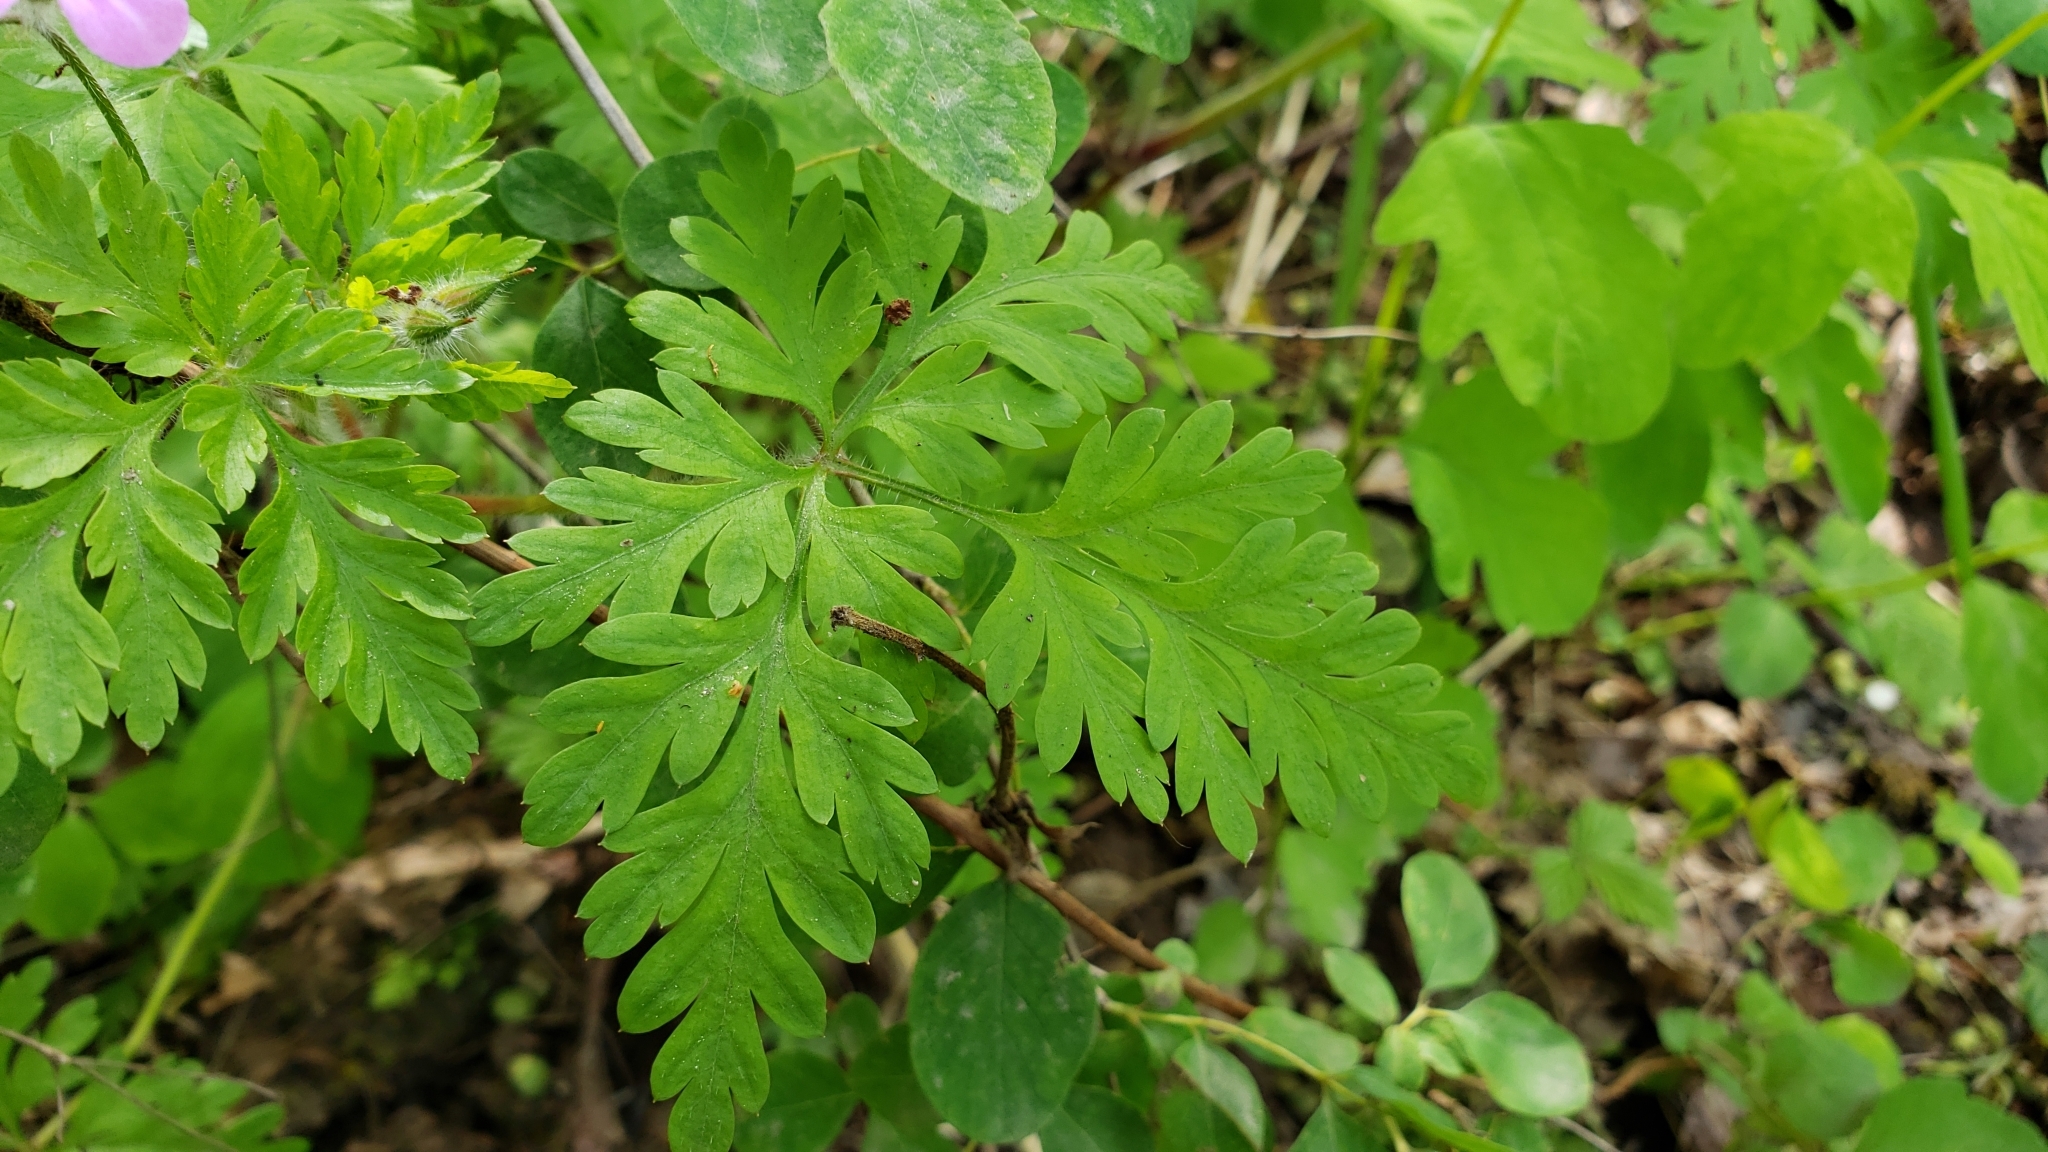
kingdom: Plantae
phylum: Tracheophyta
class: Magnoliopsida
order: Geraniales
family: Geraniaceae
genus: Geranium
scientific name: Geranium robertianum
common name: Herb-robert
